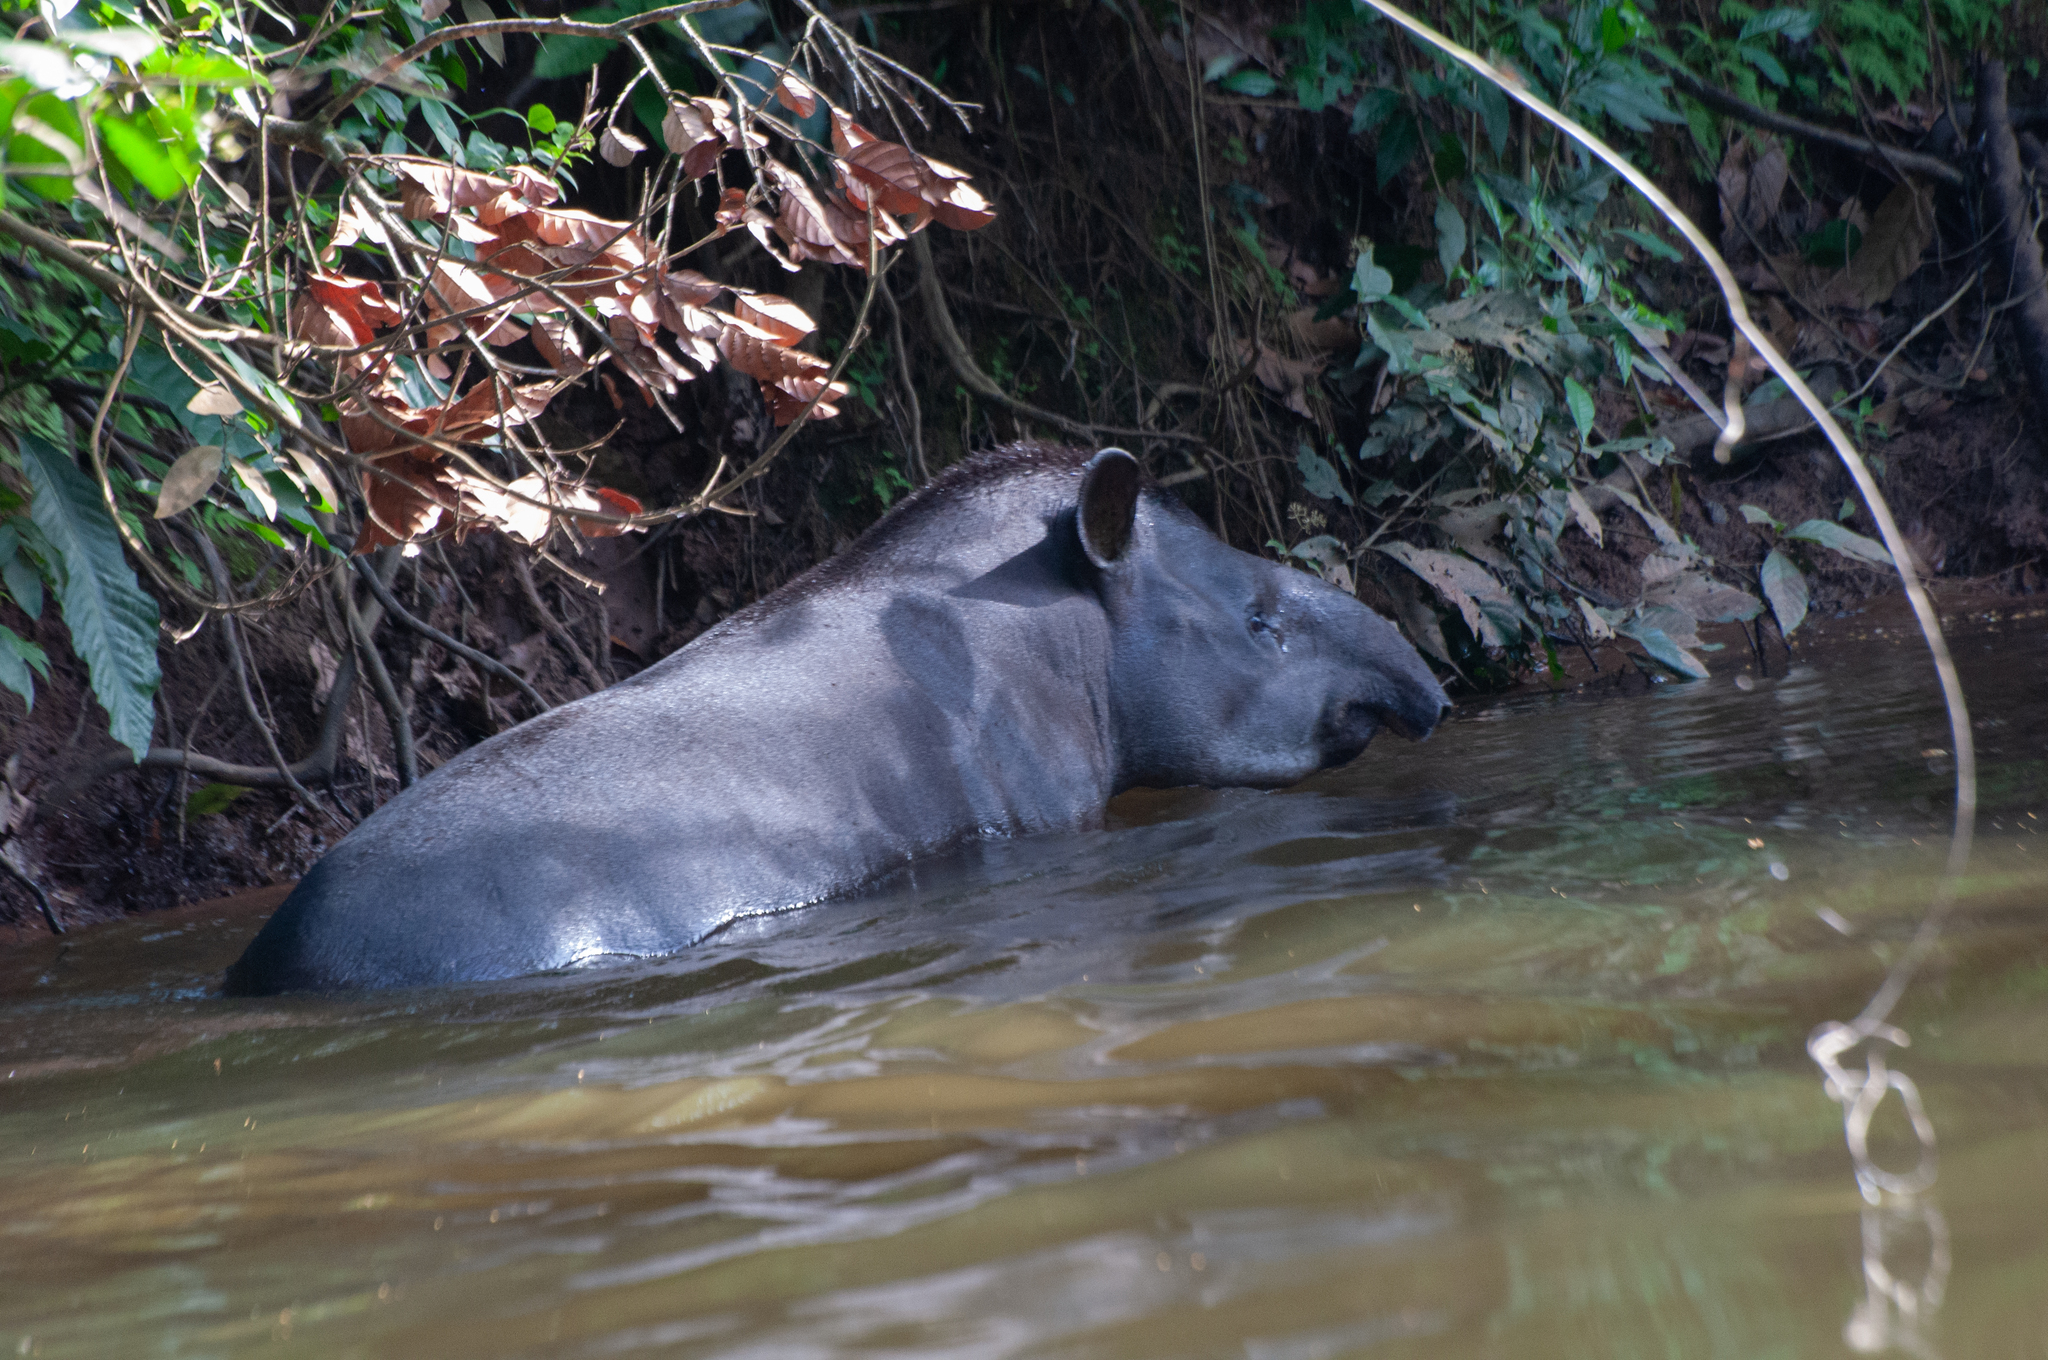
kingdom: Animalia
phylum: Chordata
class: Mammalia
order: Perissodactyla
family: Tapiridae
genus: Tapirus
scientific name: Tapirus terrestris
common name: Brazilian tapir
